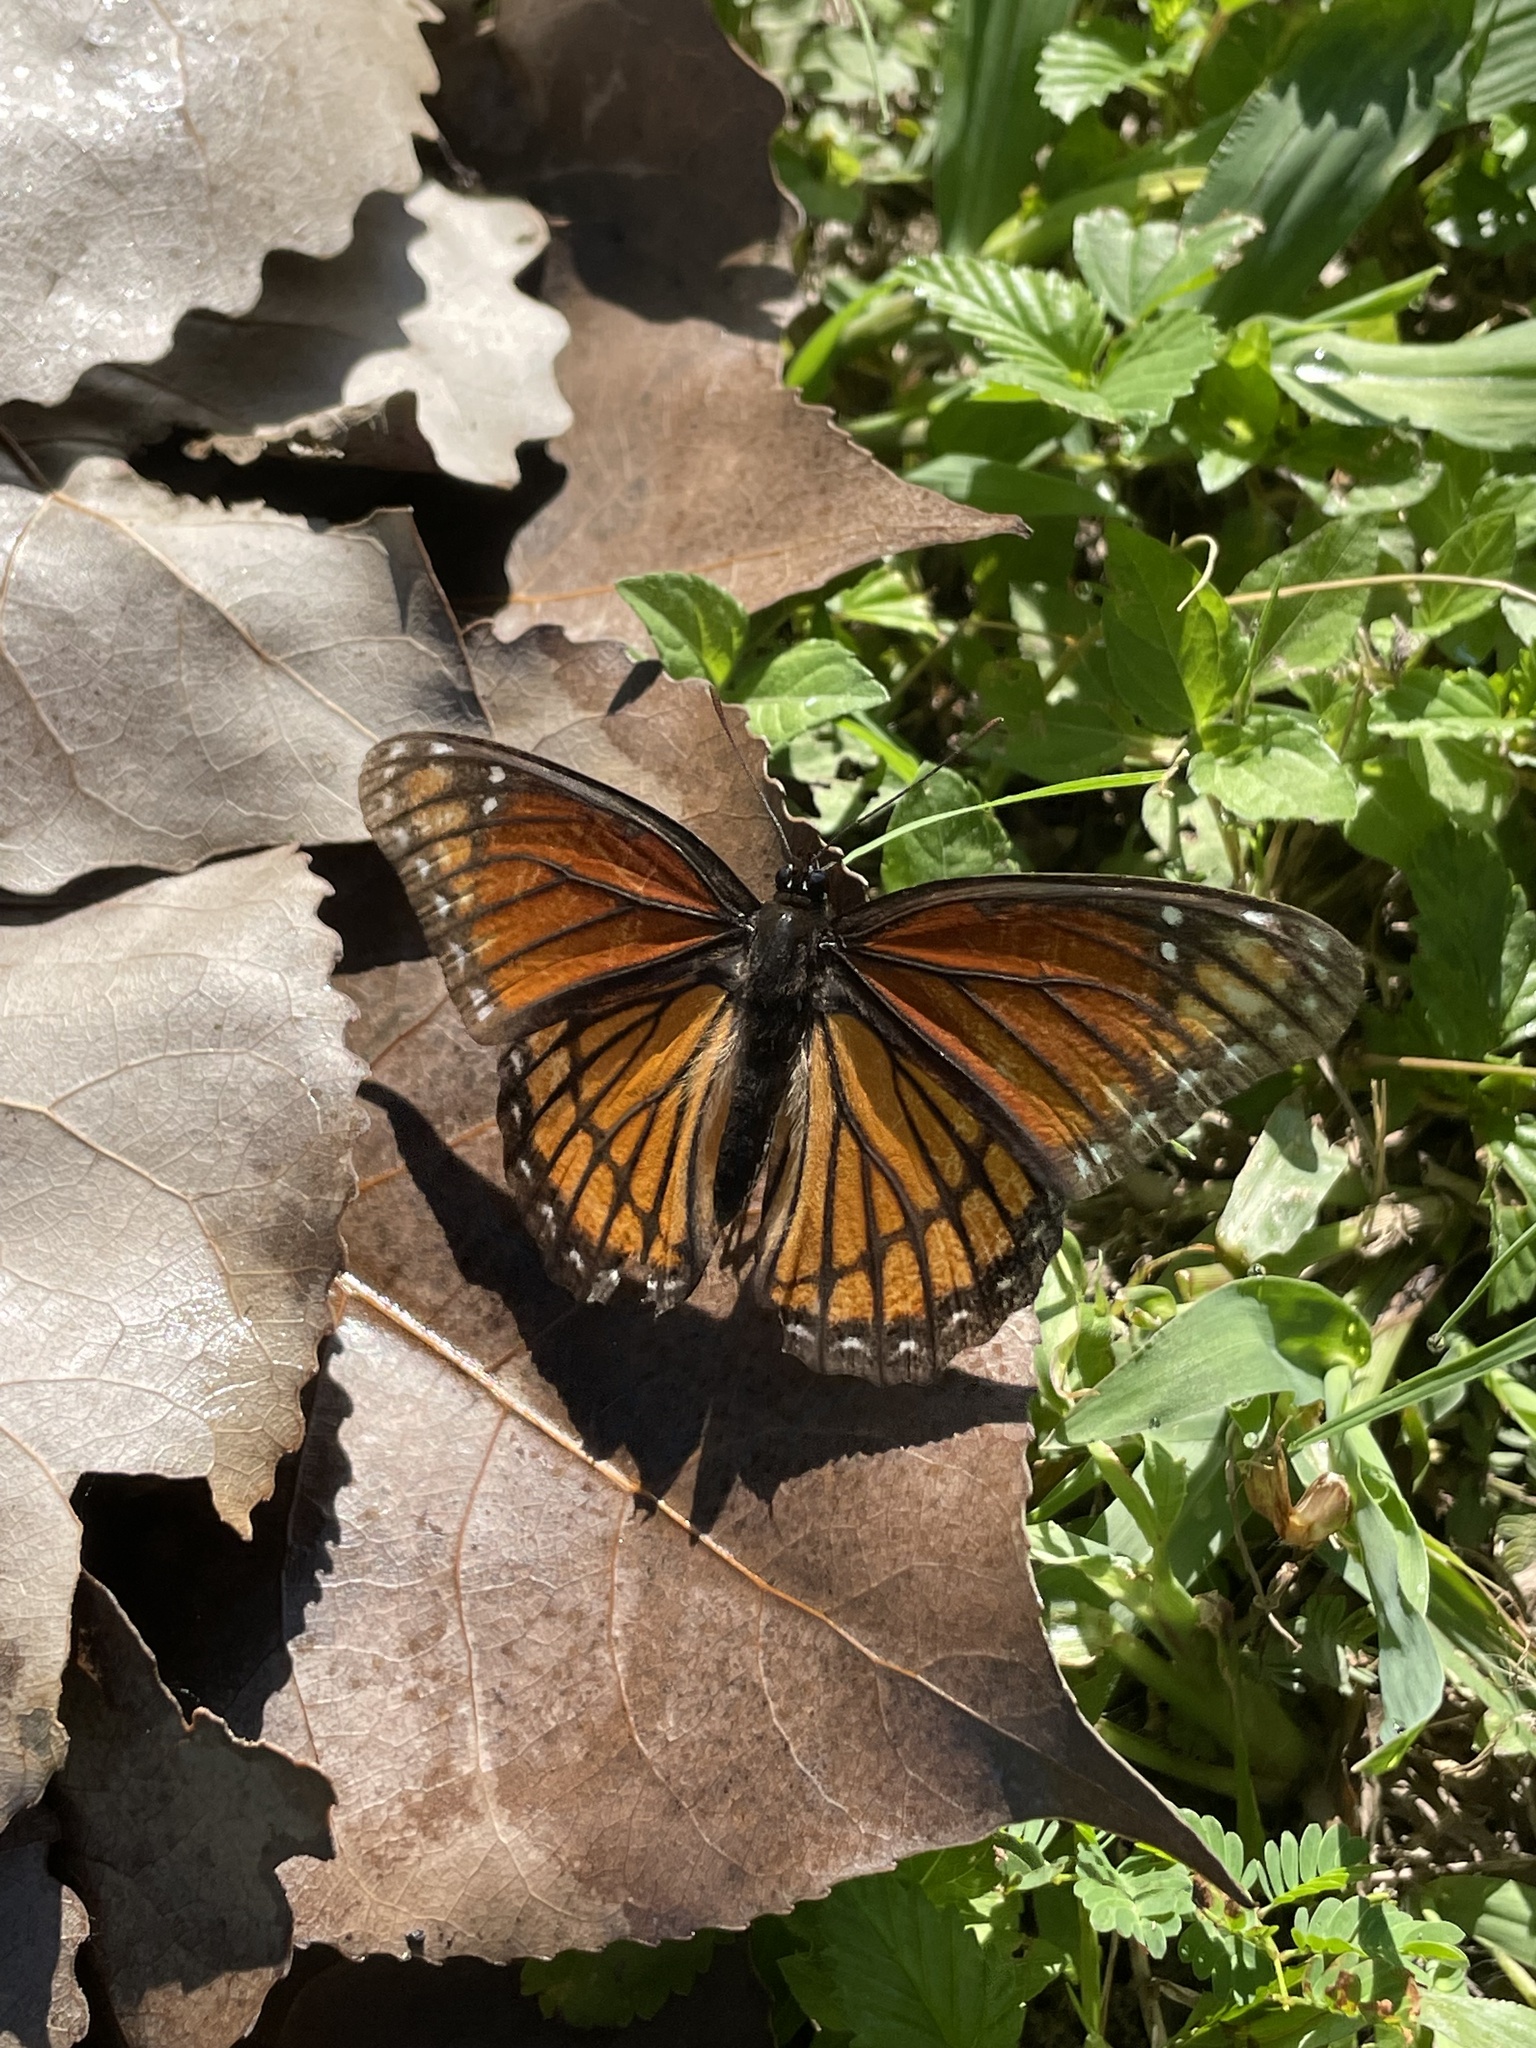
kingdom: Animalia
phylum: Arthropoda
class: Insecta
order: Lepidoptera
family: Nymphalidae
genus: Limenitis
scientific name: Limenitis archippus
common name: Viceroy
